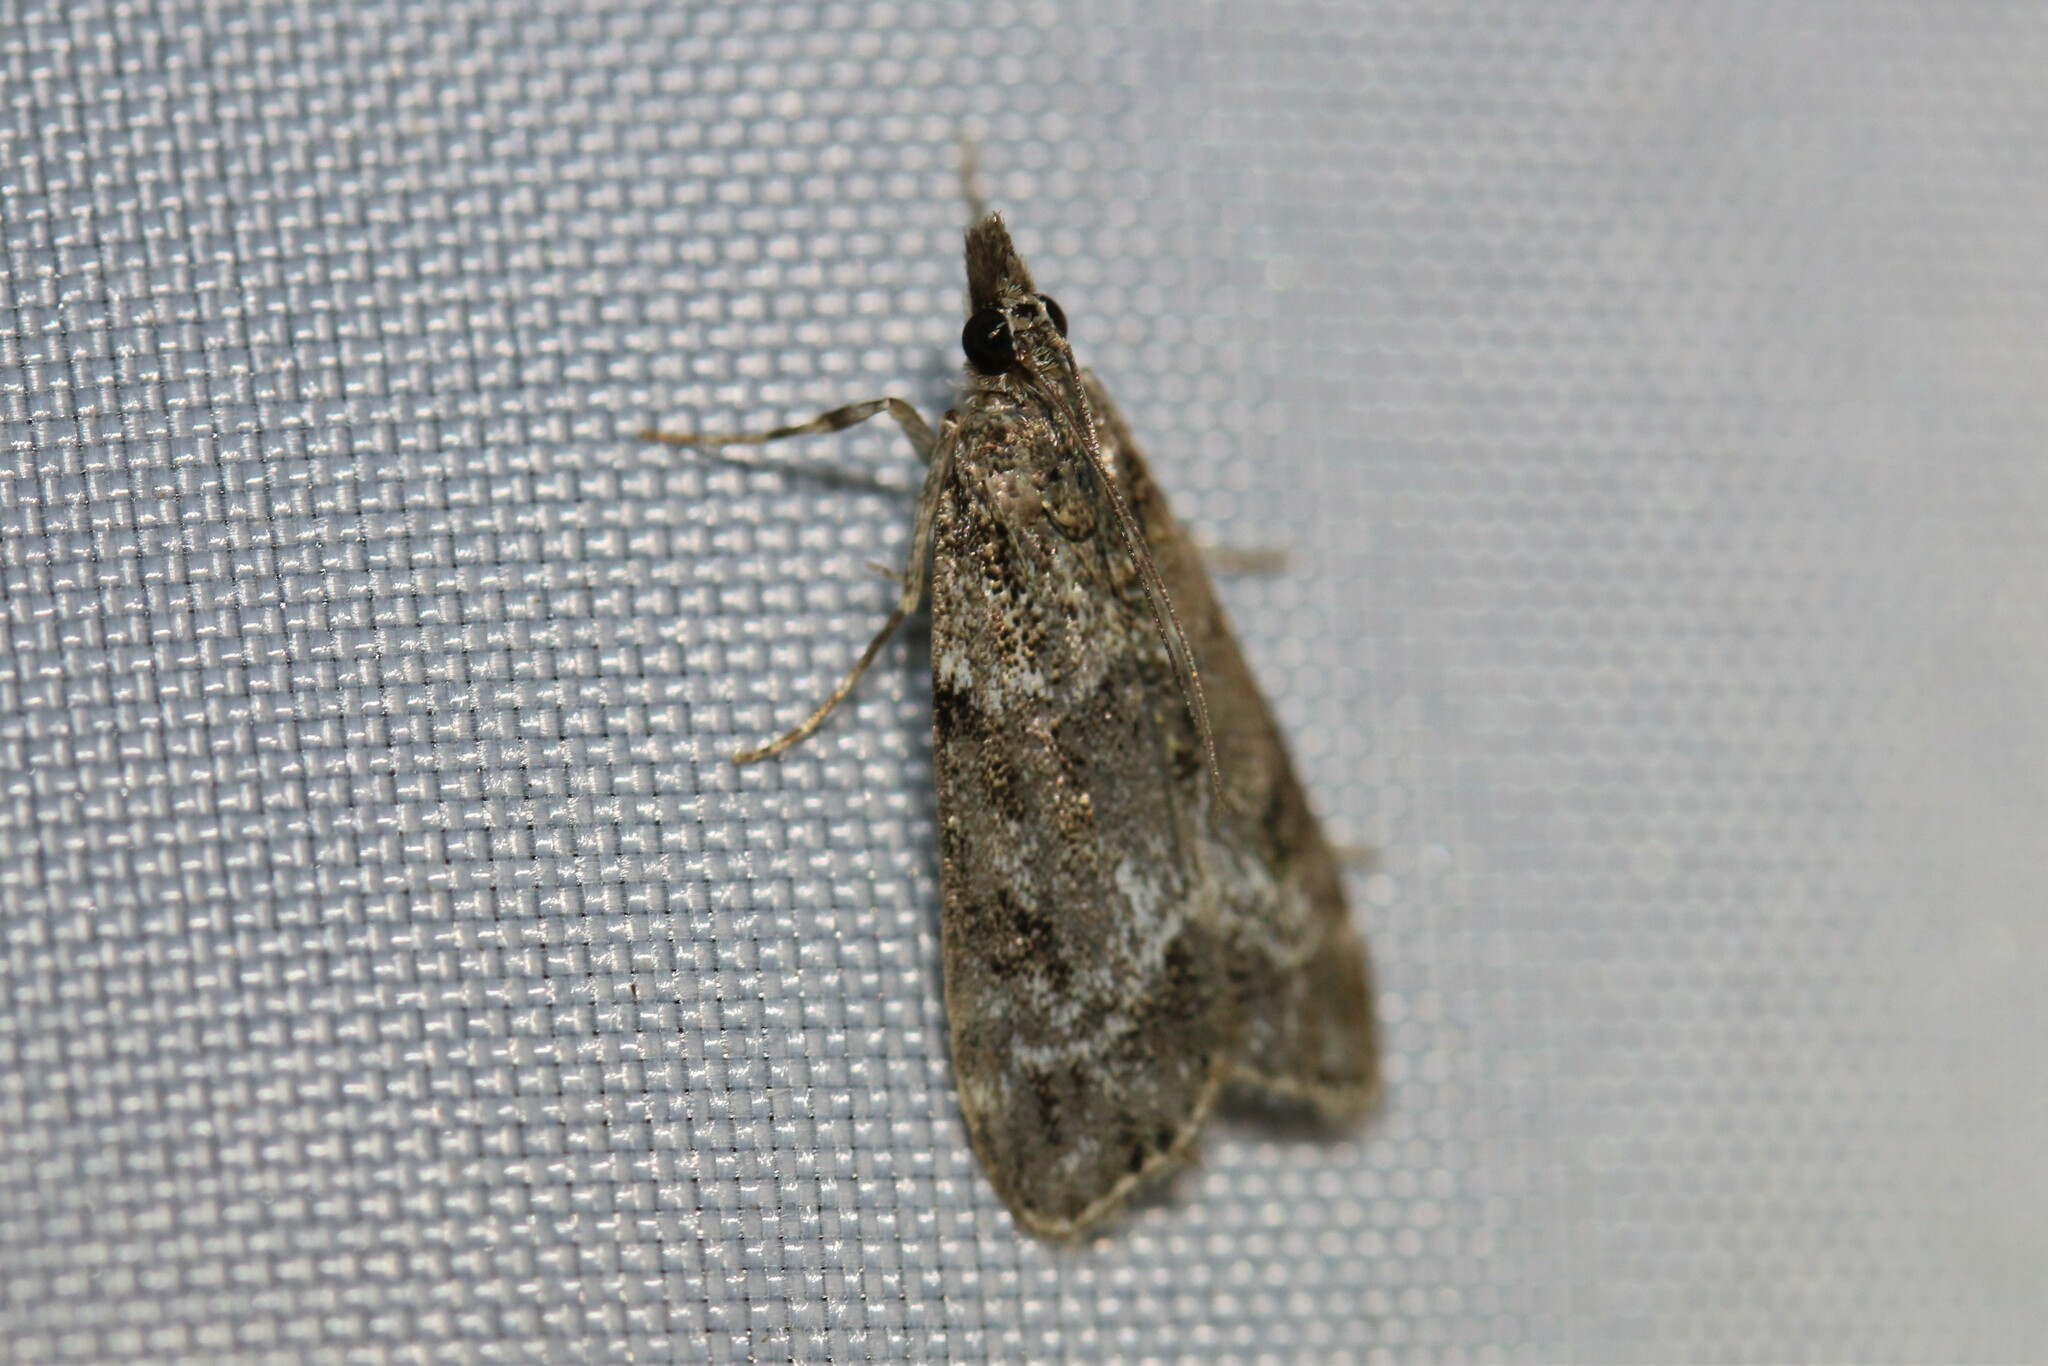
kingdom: Animalia
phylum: Arthropoda
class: Insecta
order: Lepidoptera
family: Crambidae
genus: Eudonia
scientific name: Eudonia mercurella
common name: Small grey
